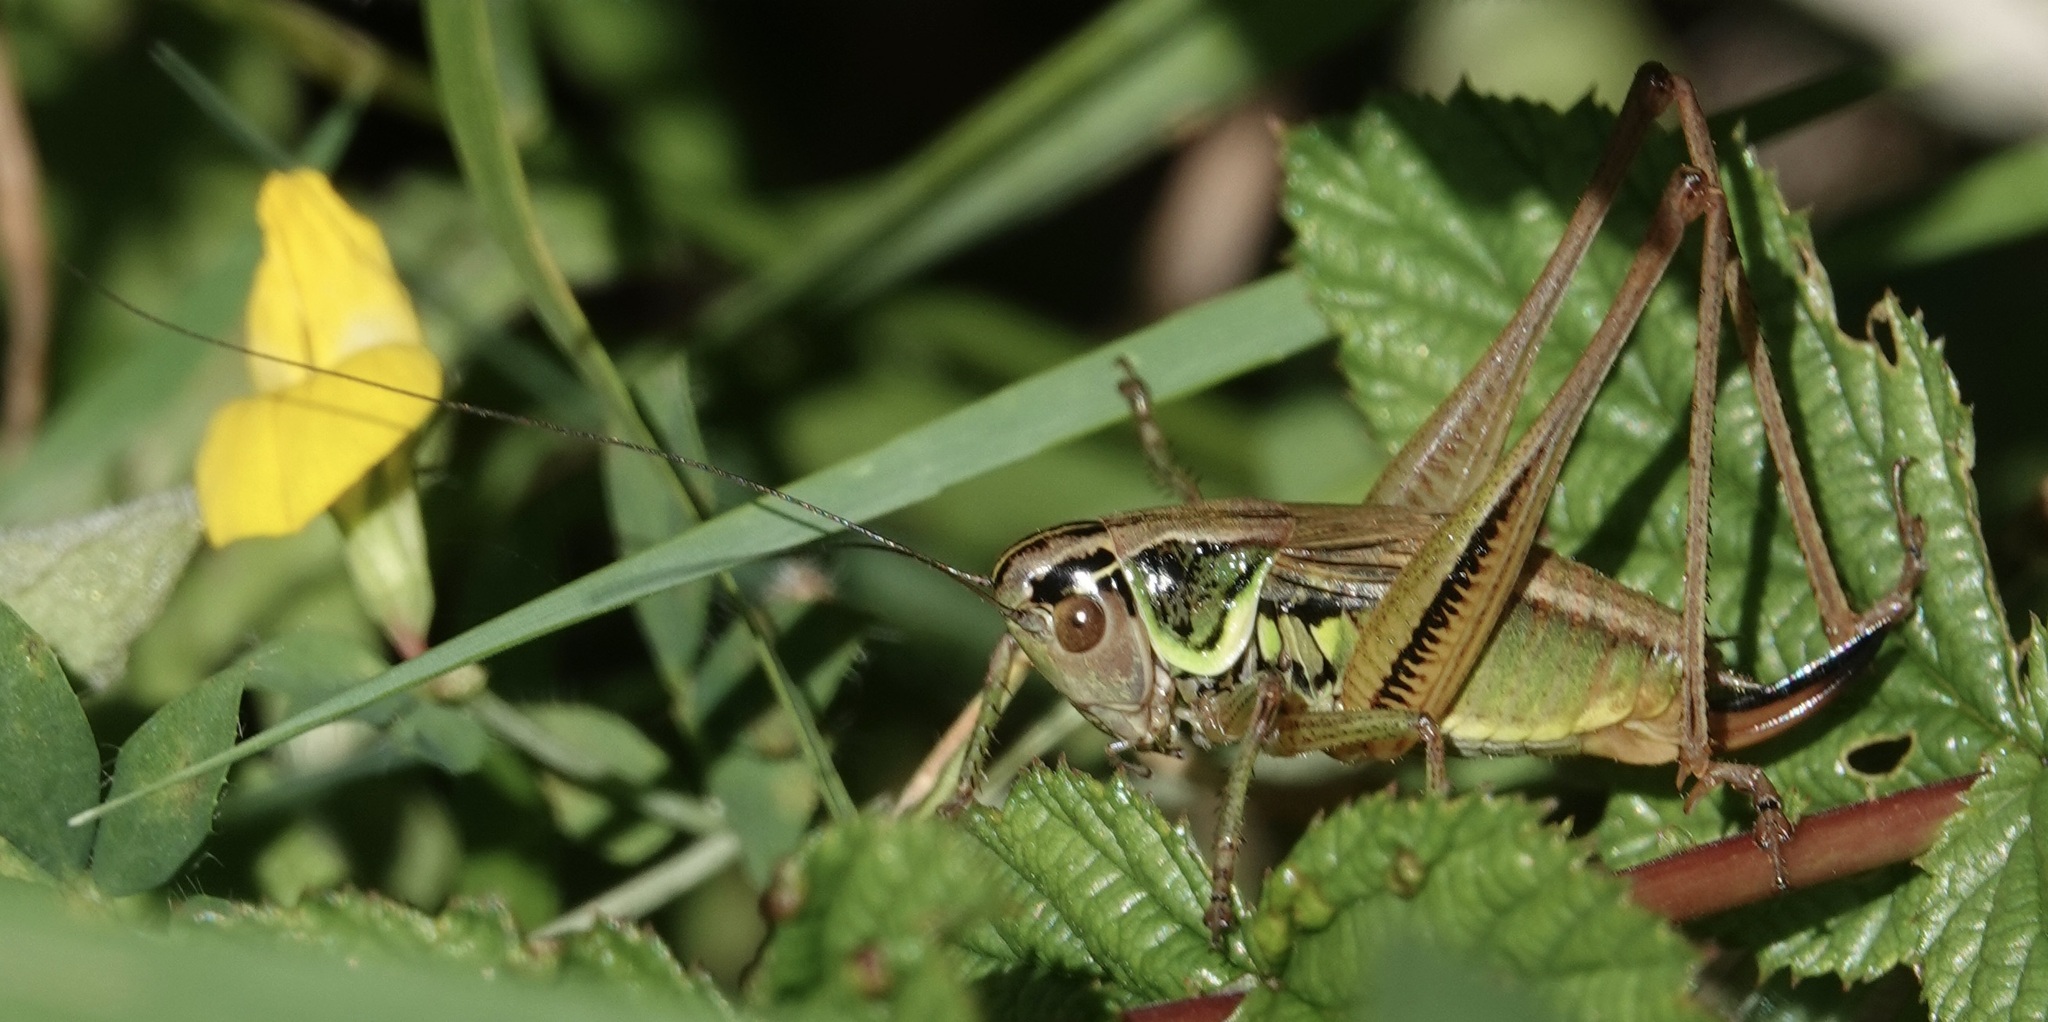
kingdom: Animalia
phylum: Arthropoda
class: Insecta
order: Orthoptera
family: Tettigoniidae
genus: Roeseliana
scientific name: Roeseliana roeselii
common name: Roesel's bush cricket
